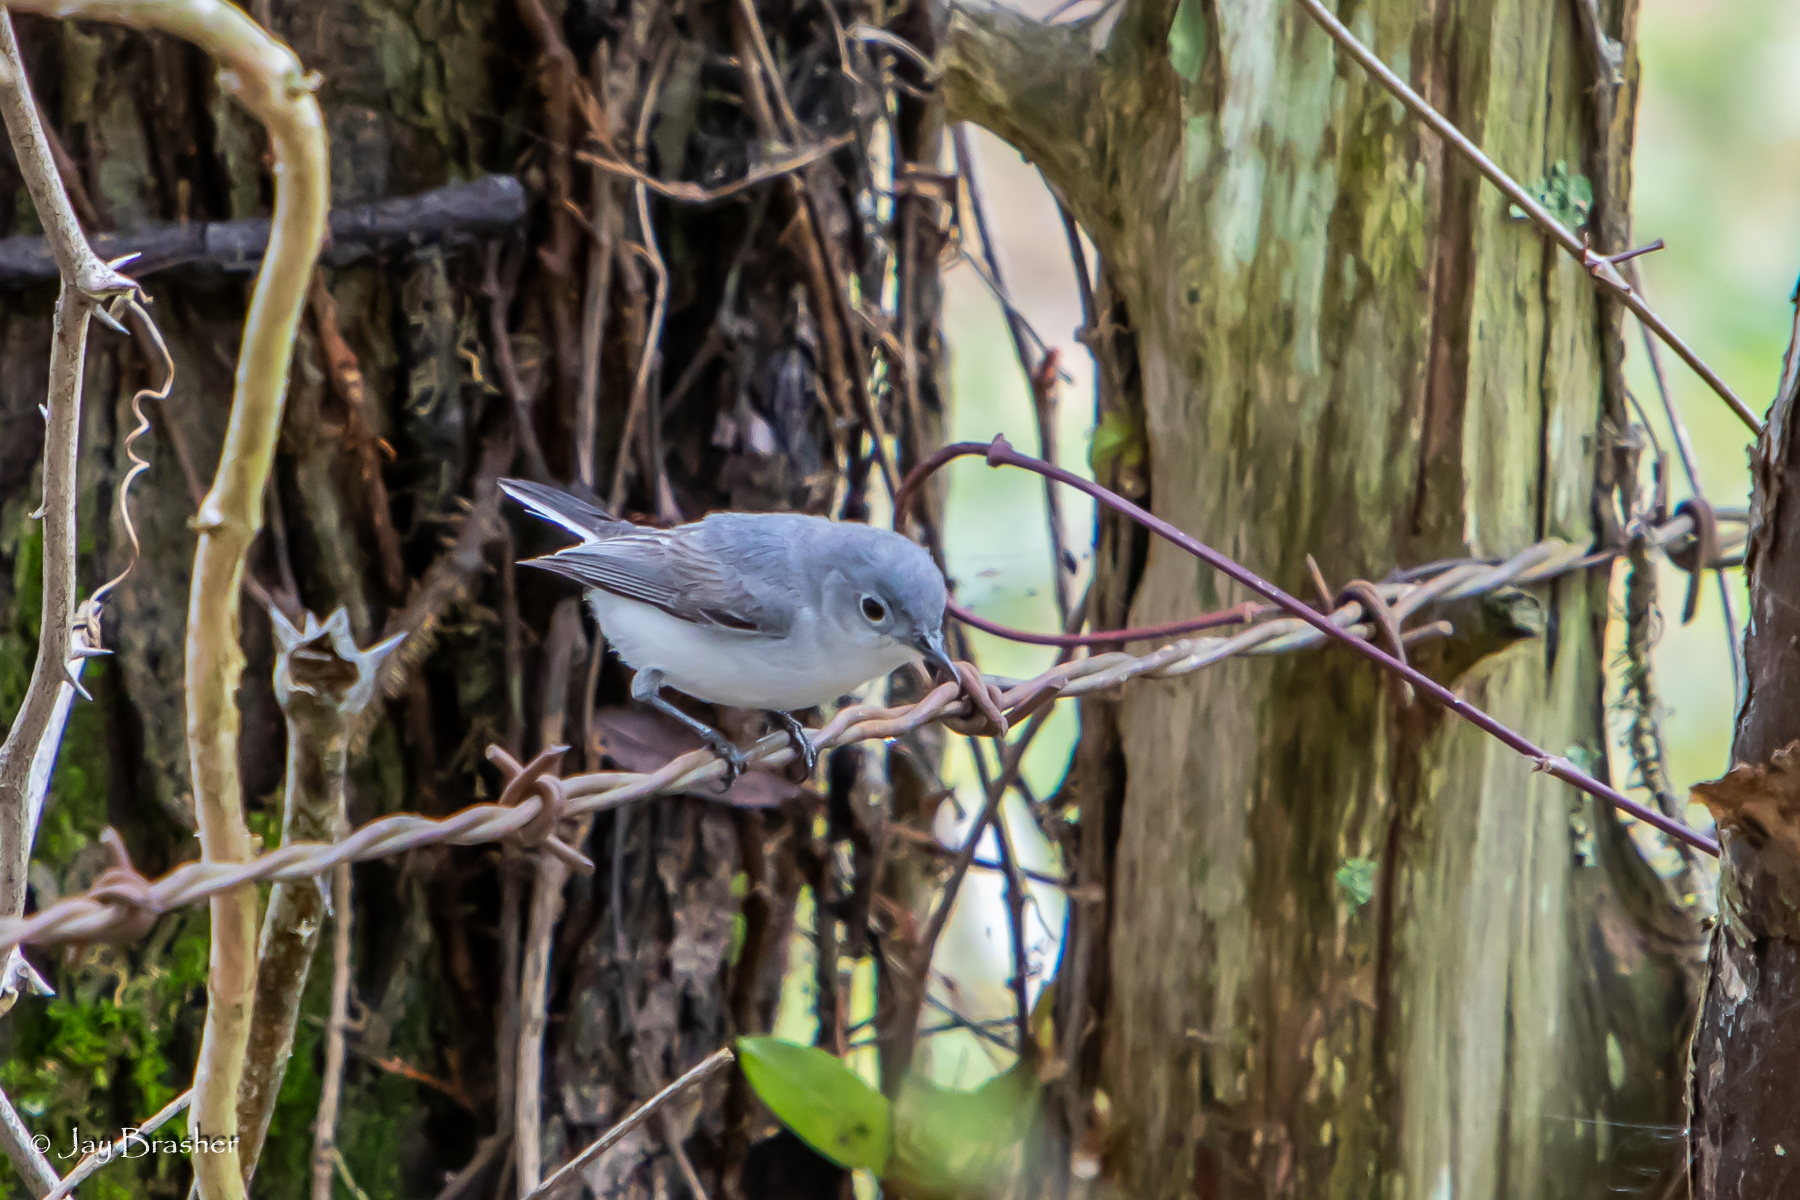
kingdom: Animalia
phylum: Chordata
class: Aves
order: Passeriformes
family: Polioptilidae
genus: Polioptila
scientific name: Polioptila caerulea
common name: Blue-gray gnatcatcher
